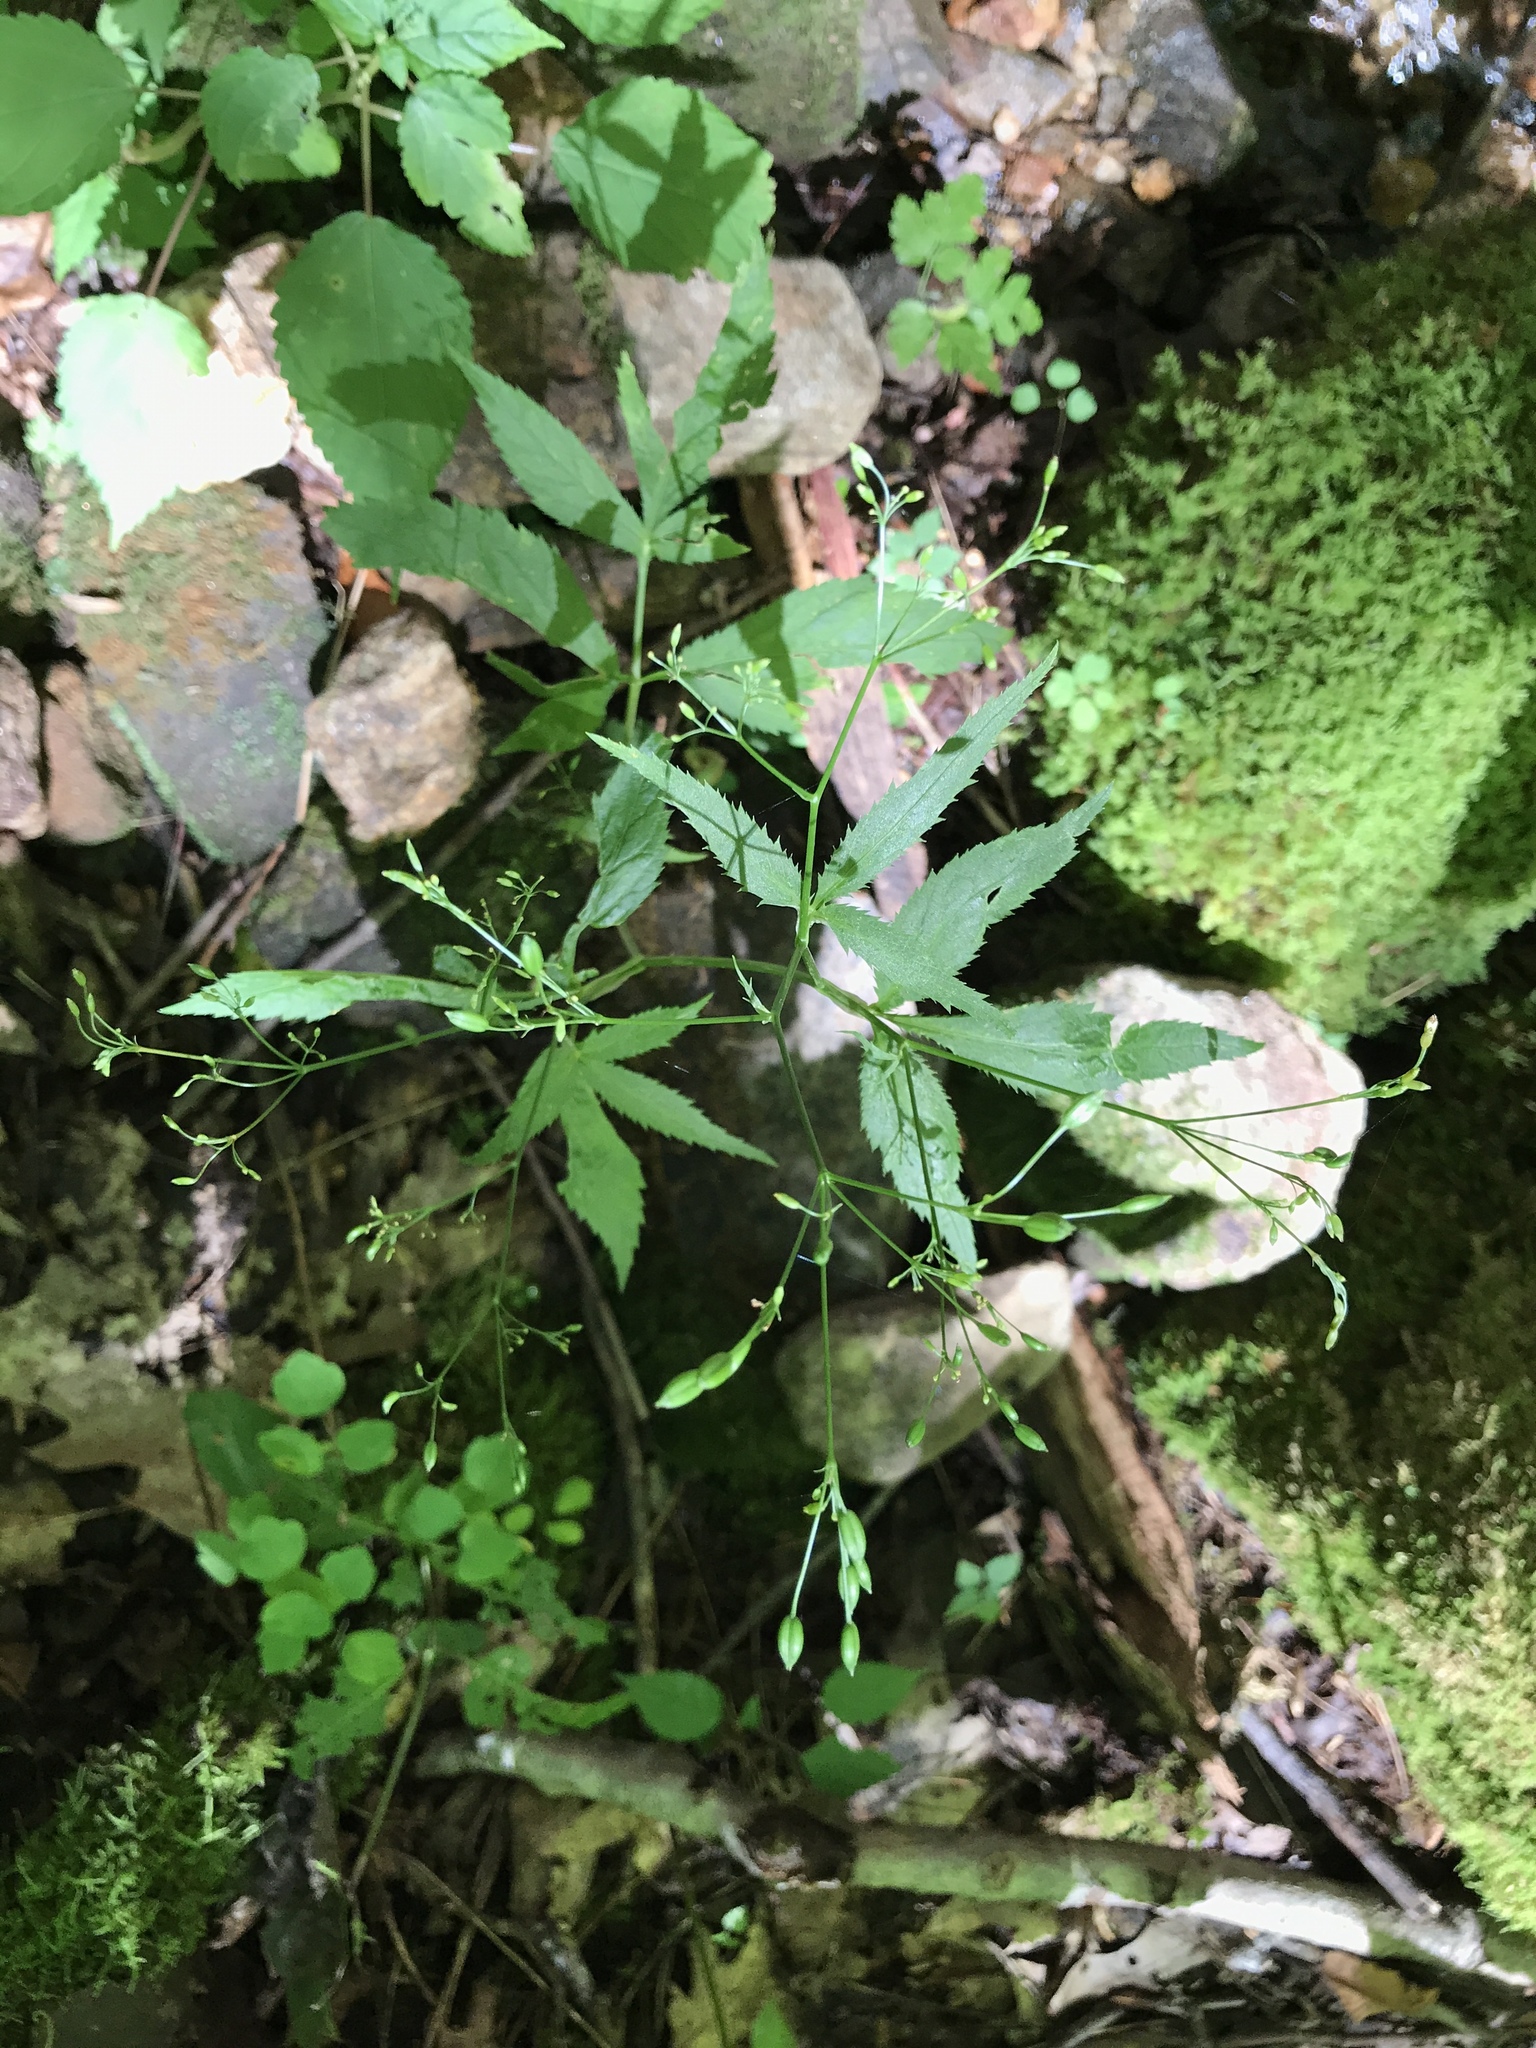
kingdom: Plantae
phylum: Tracheophyta
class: Magnoliopsida
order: Apiales
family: Apiaceae
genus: Cryptotaenia
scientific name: Cryptotaenia canadensis
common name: Honewort
